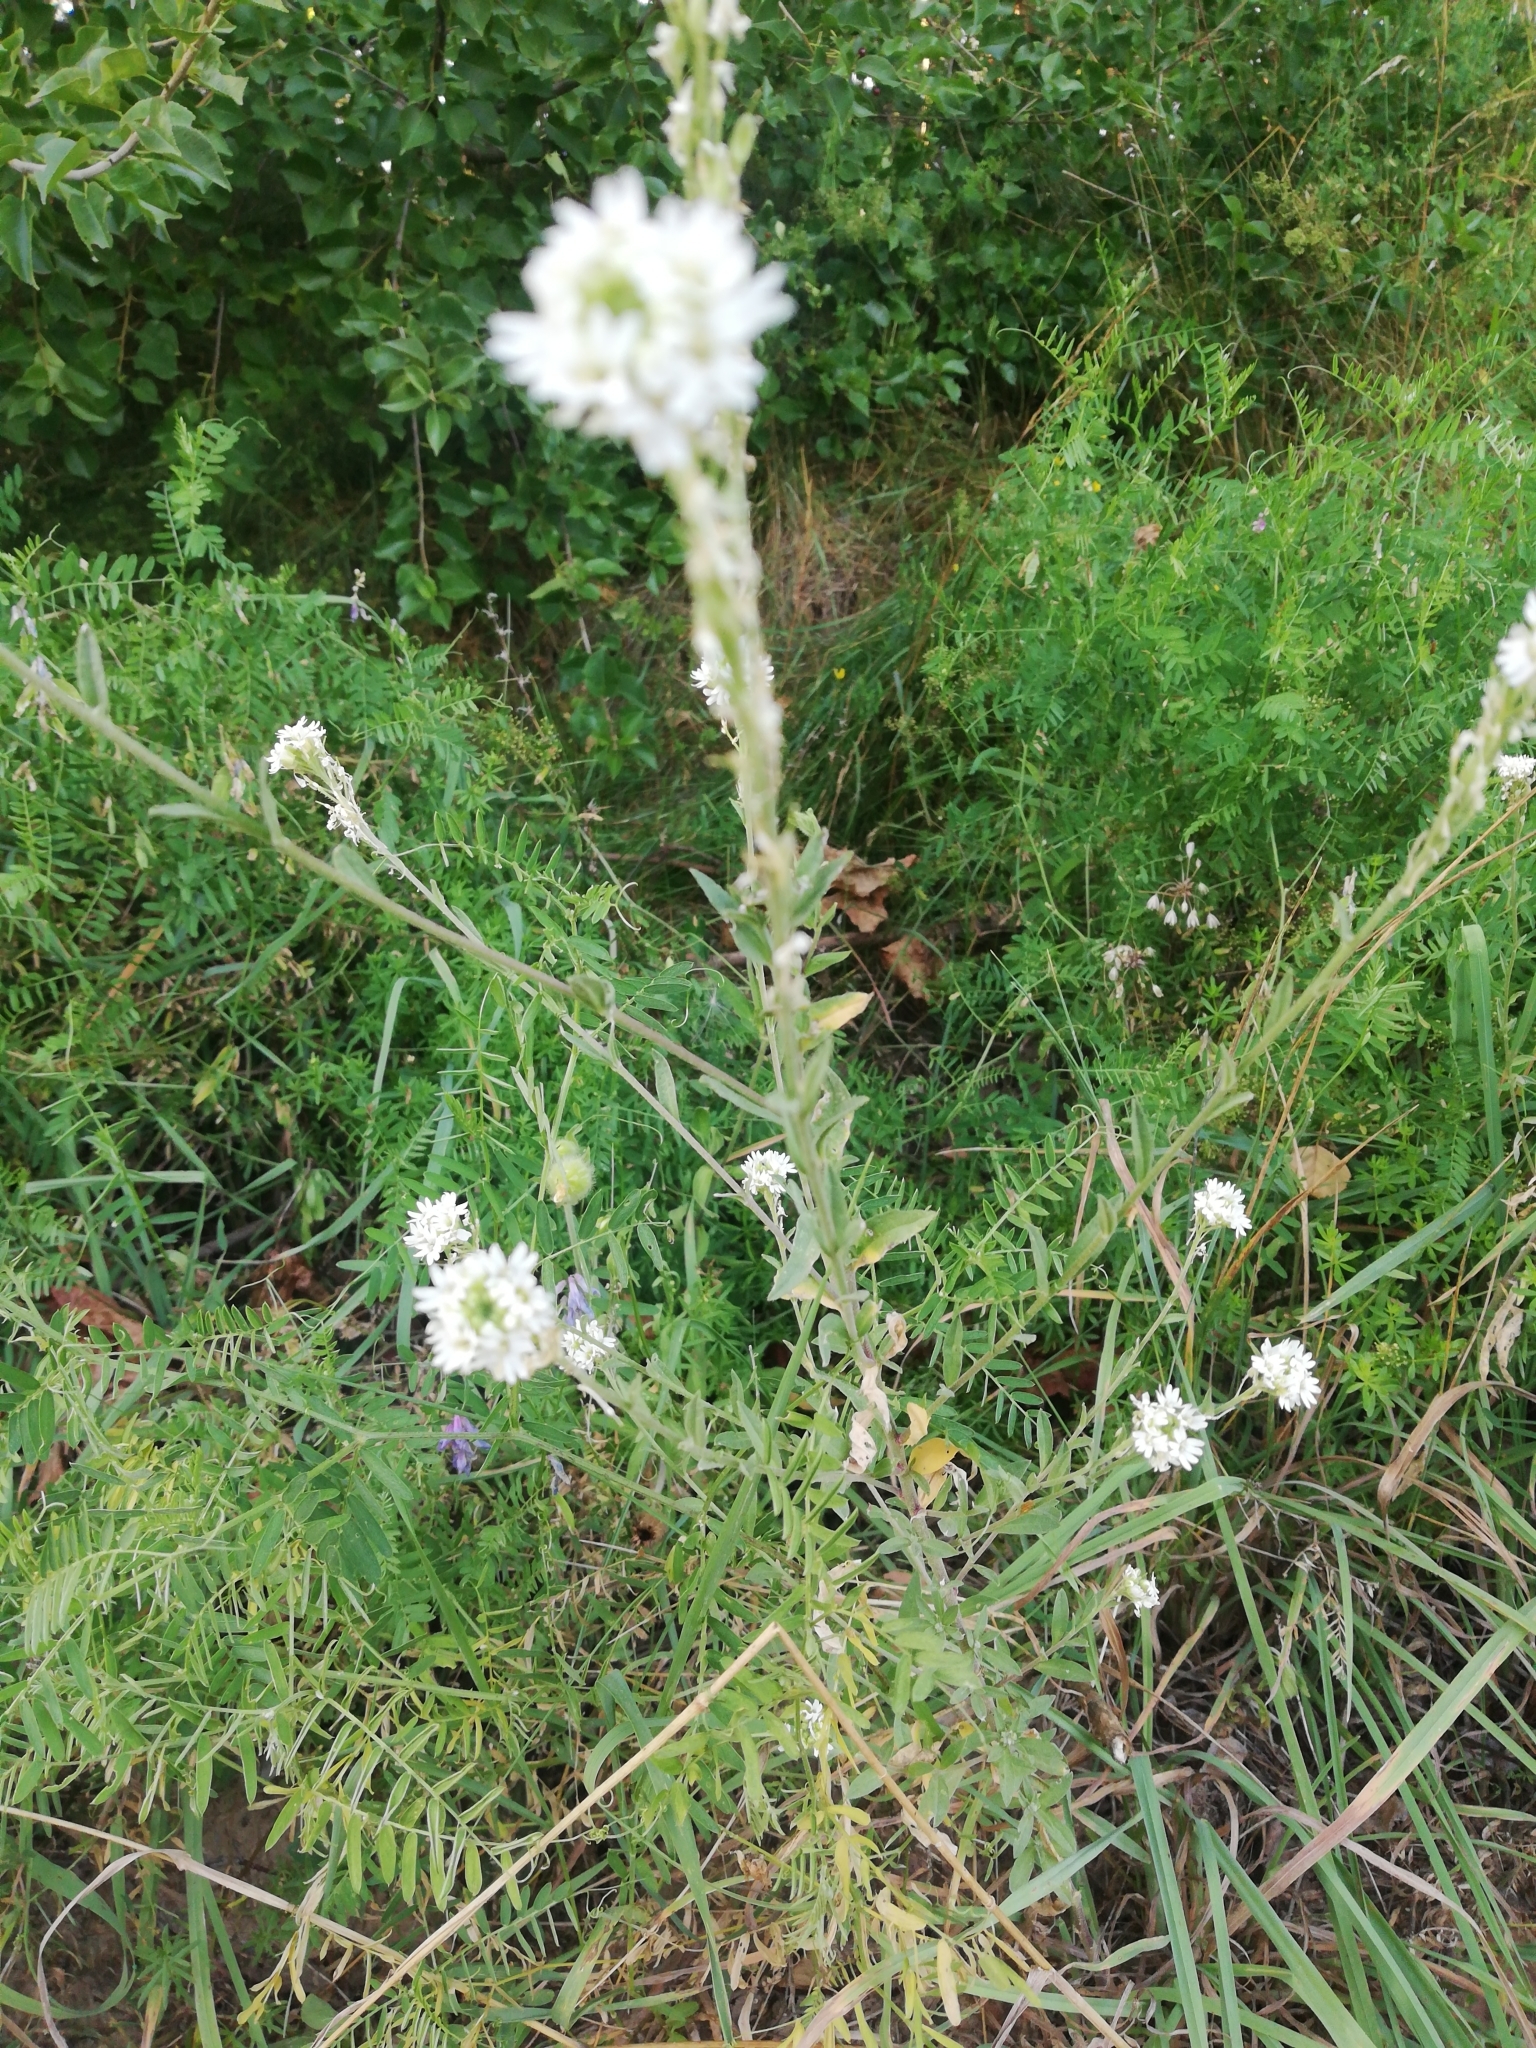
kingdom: Plantae
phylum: Tracheophyta
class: Magnoliopsida
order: Brassicales
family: Brassicaceae
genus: Berteroa
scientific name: Berteroa incana
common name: Hoary alison
